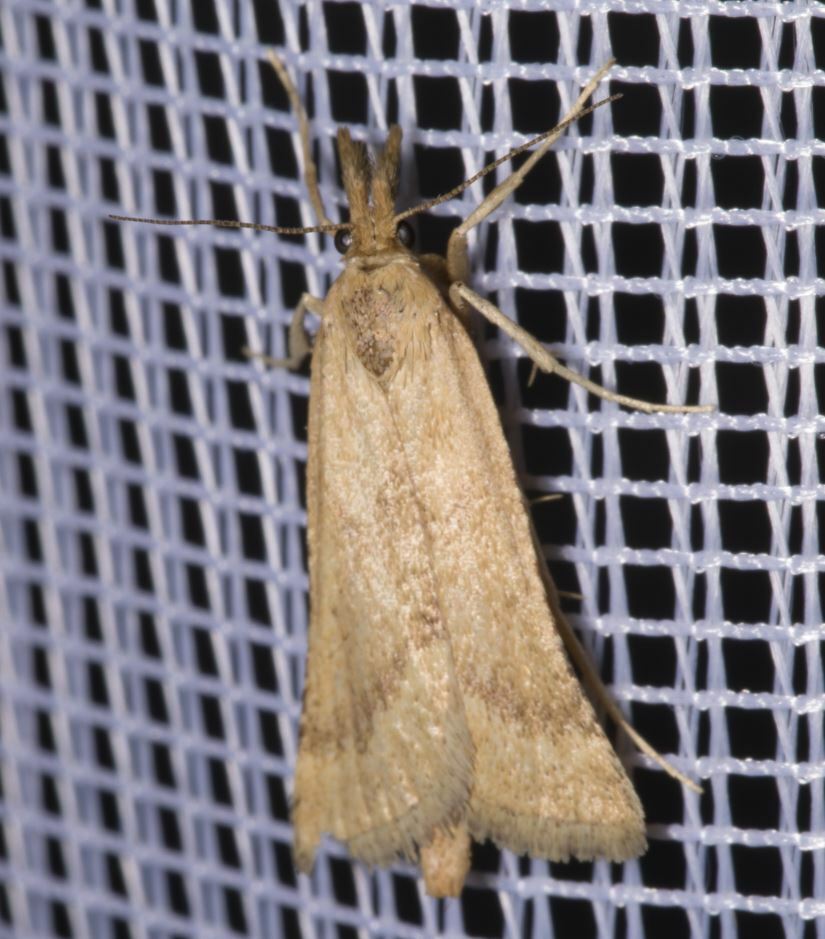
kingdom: Animalia
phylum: Arthropoda
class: Insecta
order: Lepidoptera
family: Pyralidae
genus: Synaphe
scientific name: Synaphe punctalis
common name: Long-legged tabby
